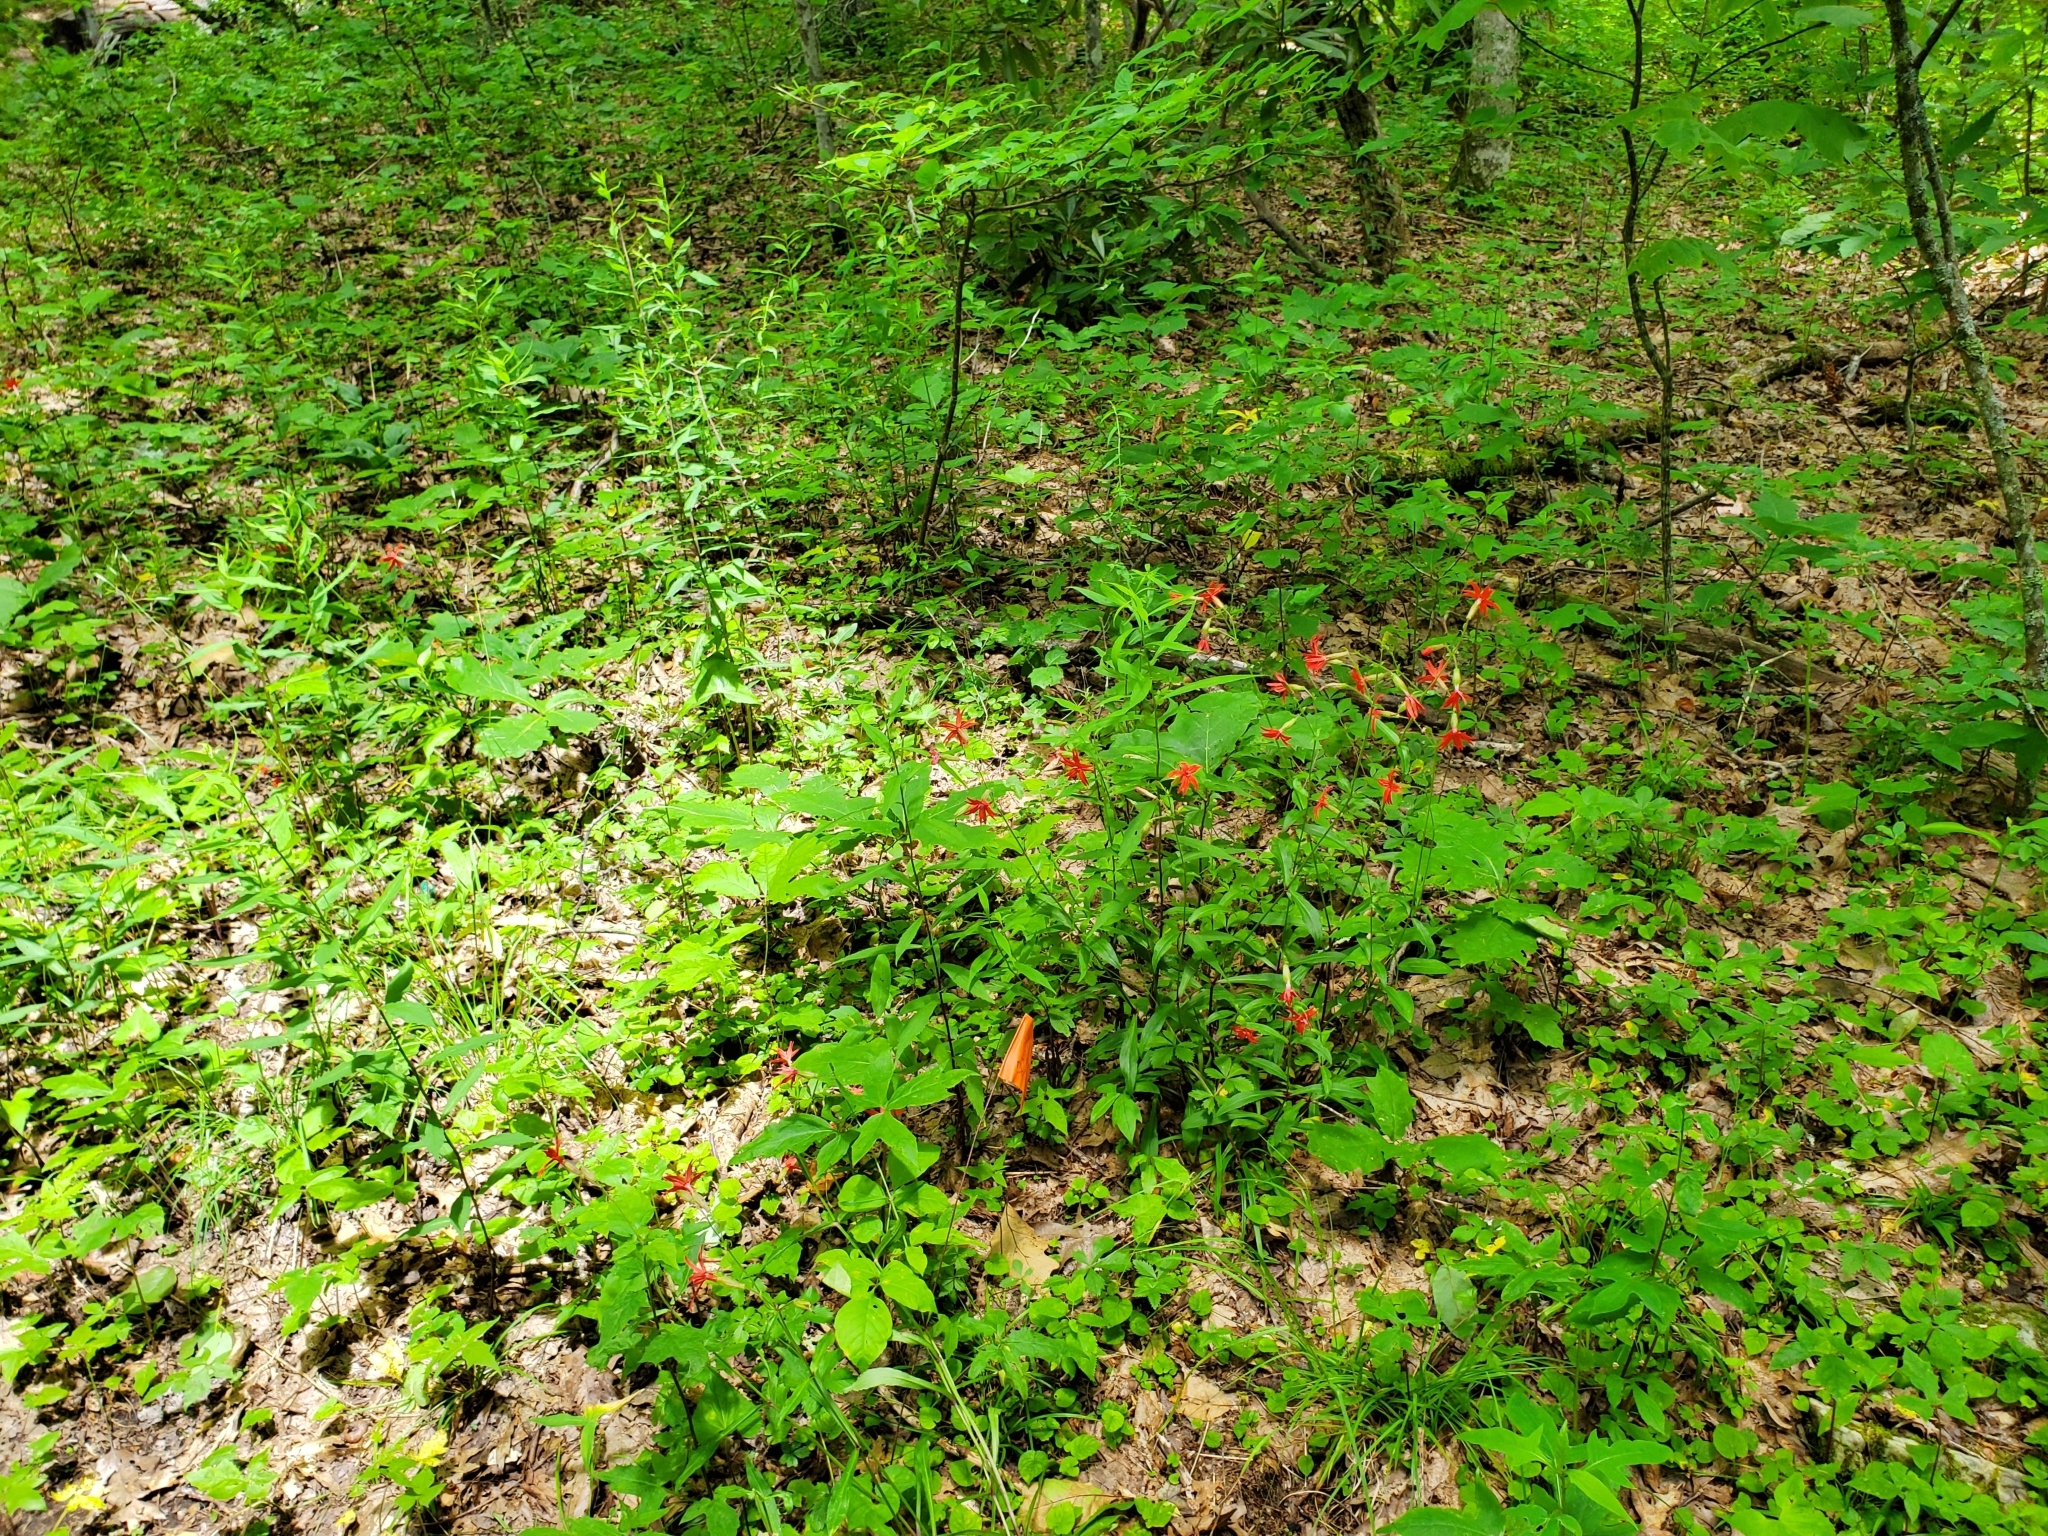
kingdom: Plantae
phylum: Tracheophyta
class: Magnoliopsida
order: Caryophyllales
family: Caryophyllaceae
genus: Silene
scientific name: Silene virginica
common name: Fire-pink
